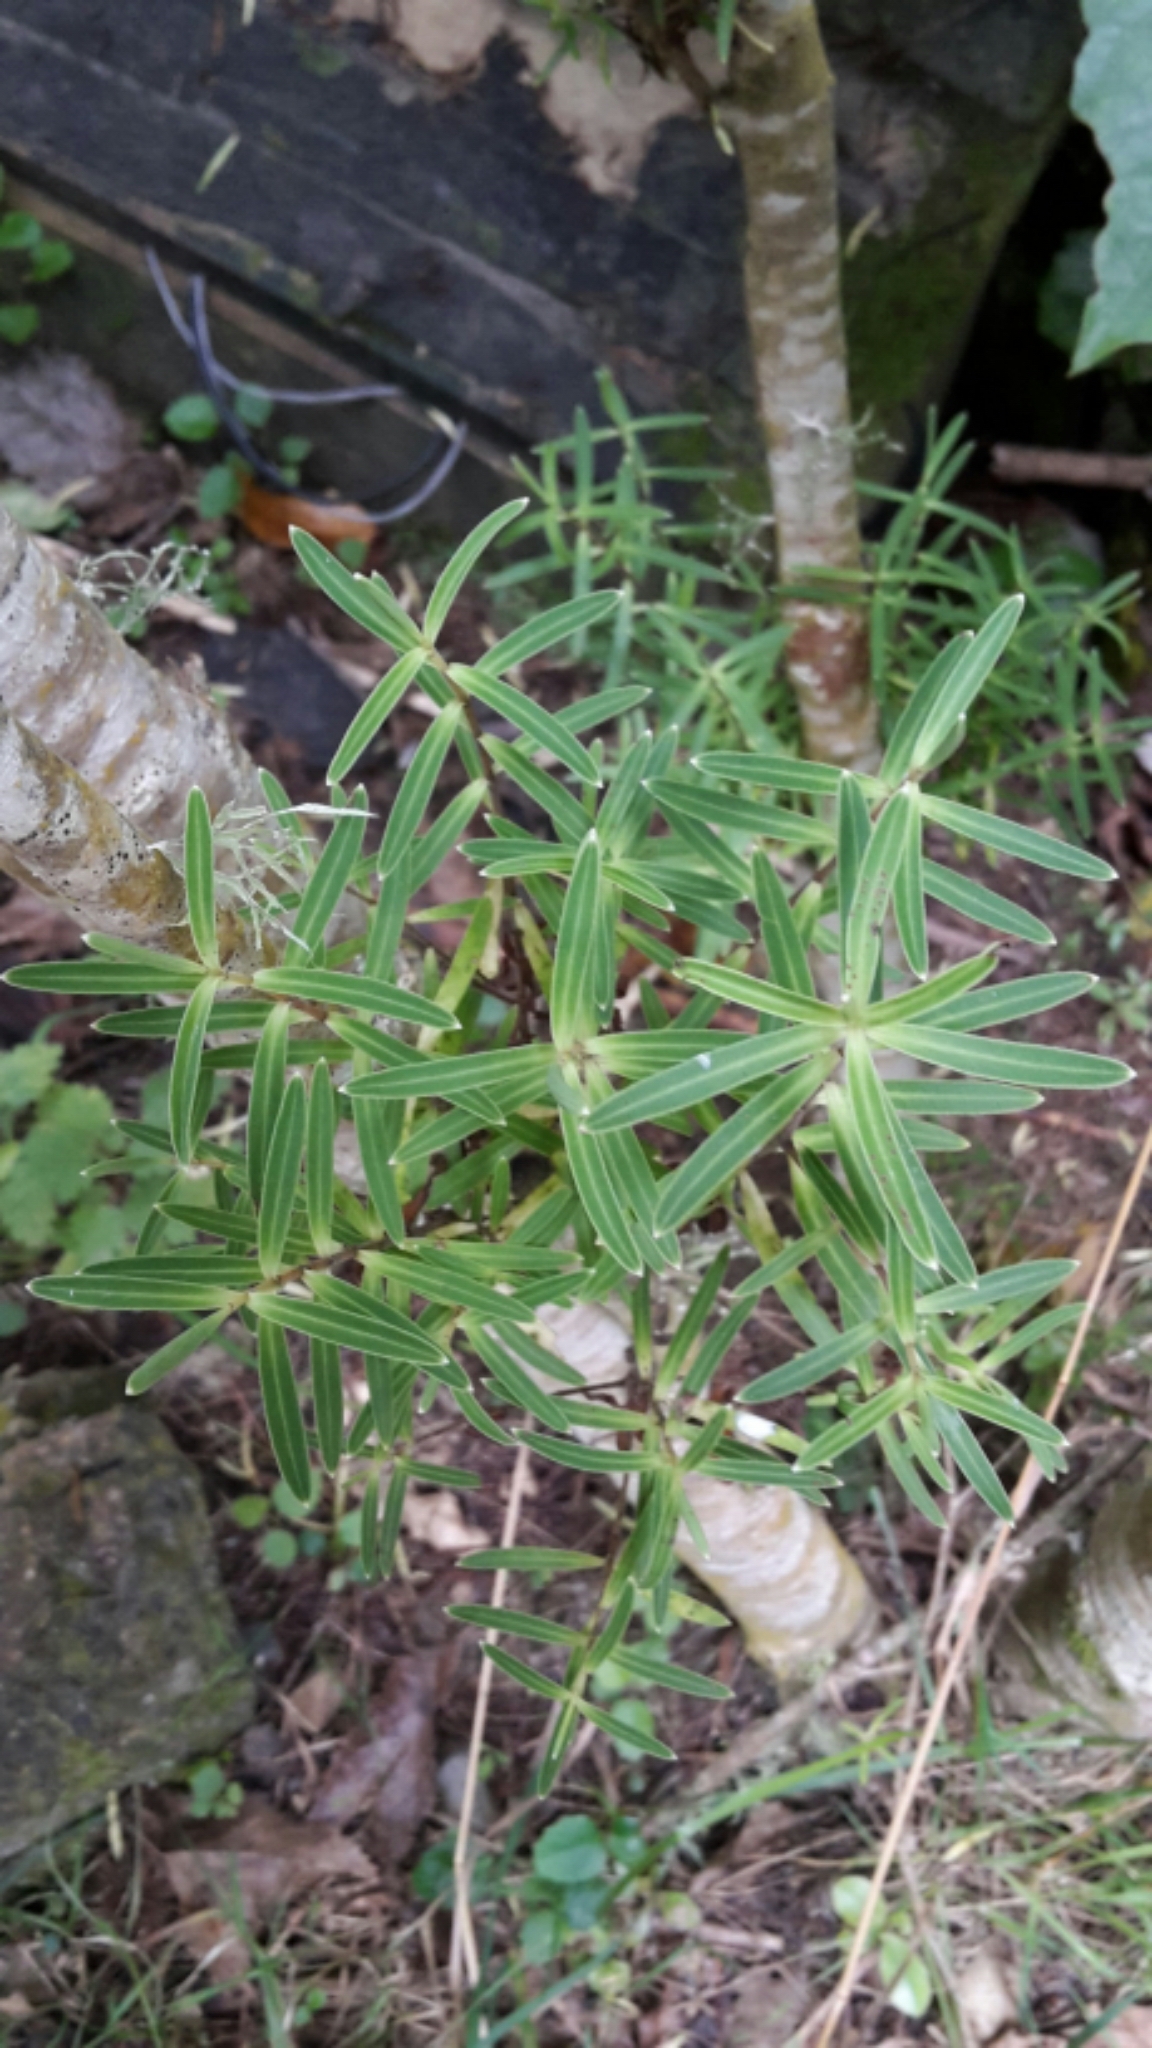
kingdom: Plantae
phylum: Tracheophyta
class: Magnoliopsida
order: Lamiales
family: Plantaginaceae
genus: Veronica
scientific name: Veronica parviflora
